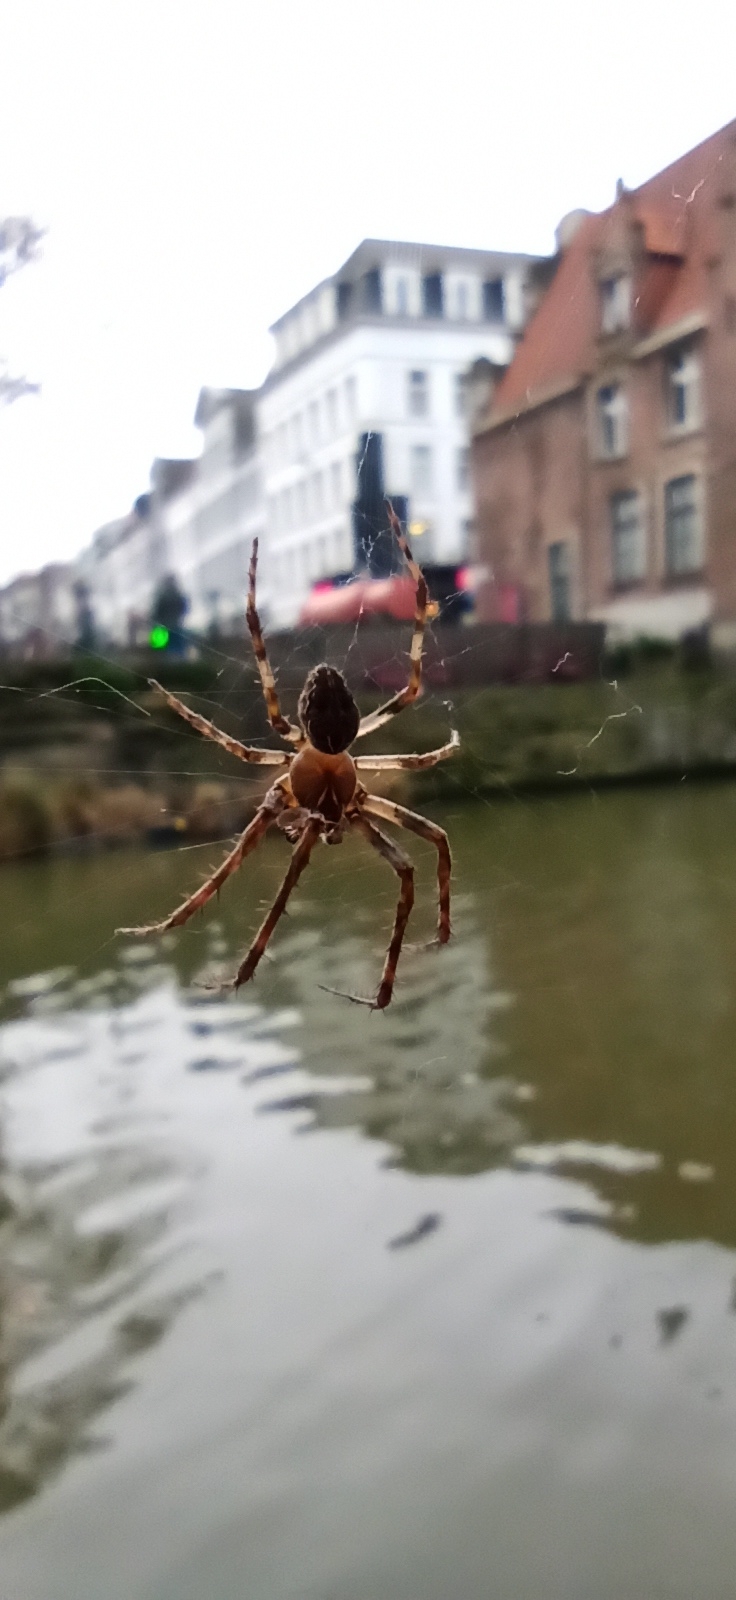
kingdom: Animalia
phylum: Arthropoda
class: Arachnida
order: Araneae
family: Araneidae
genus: Larinioides
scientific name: Larinioides sclopetarius
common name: Bridge orbweaver
